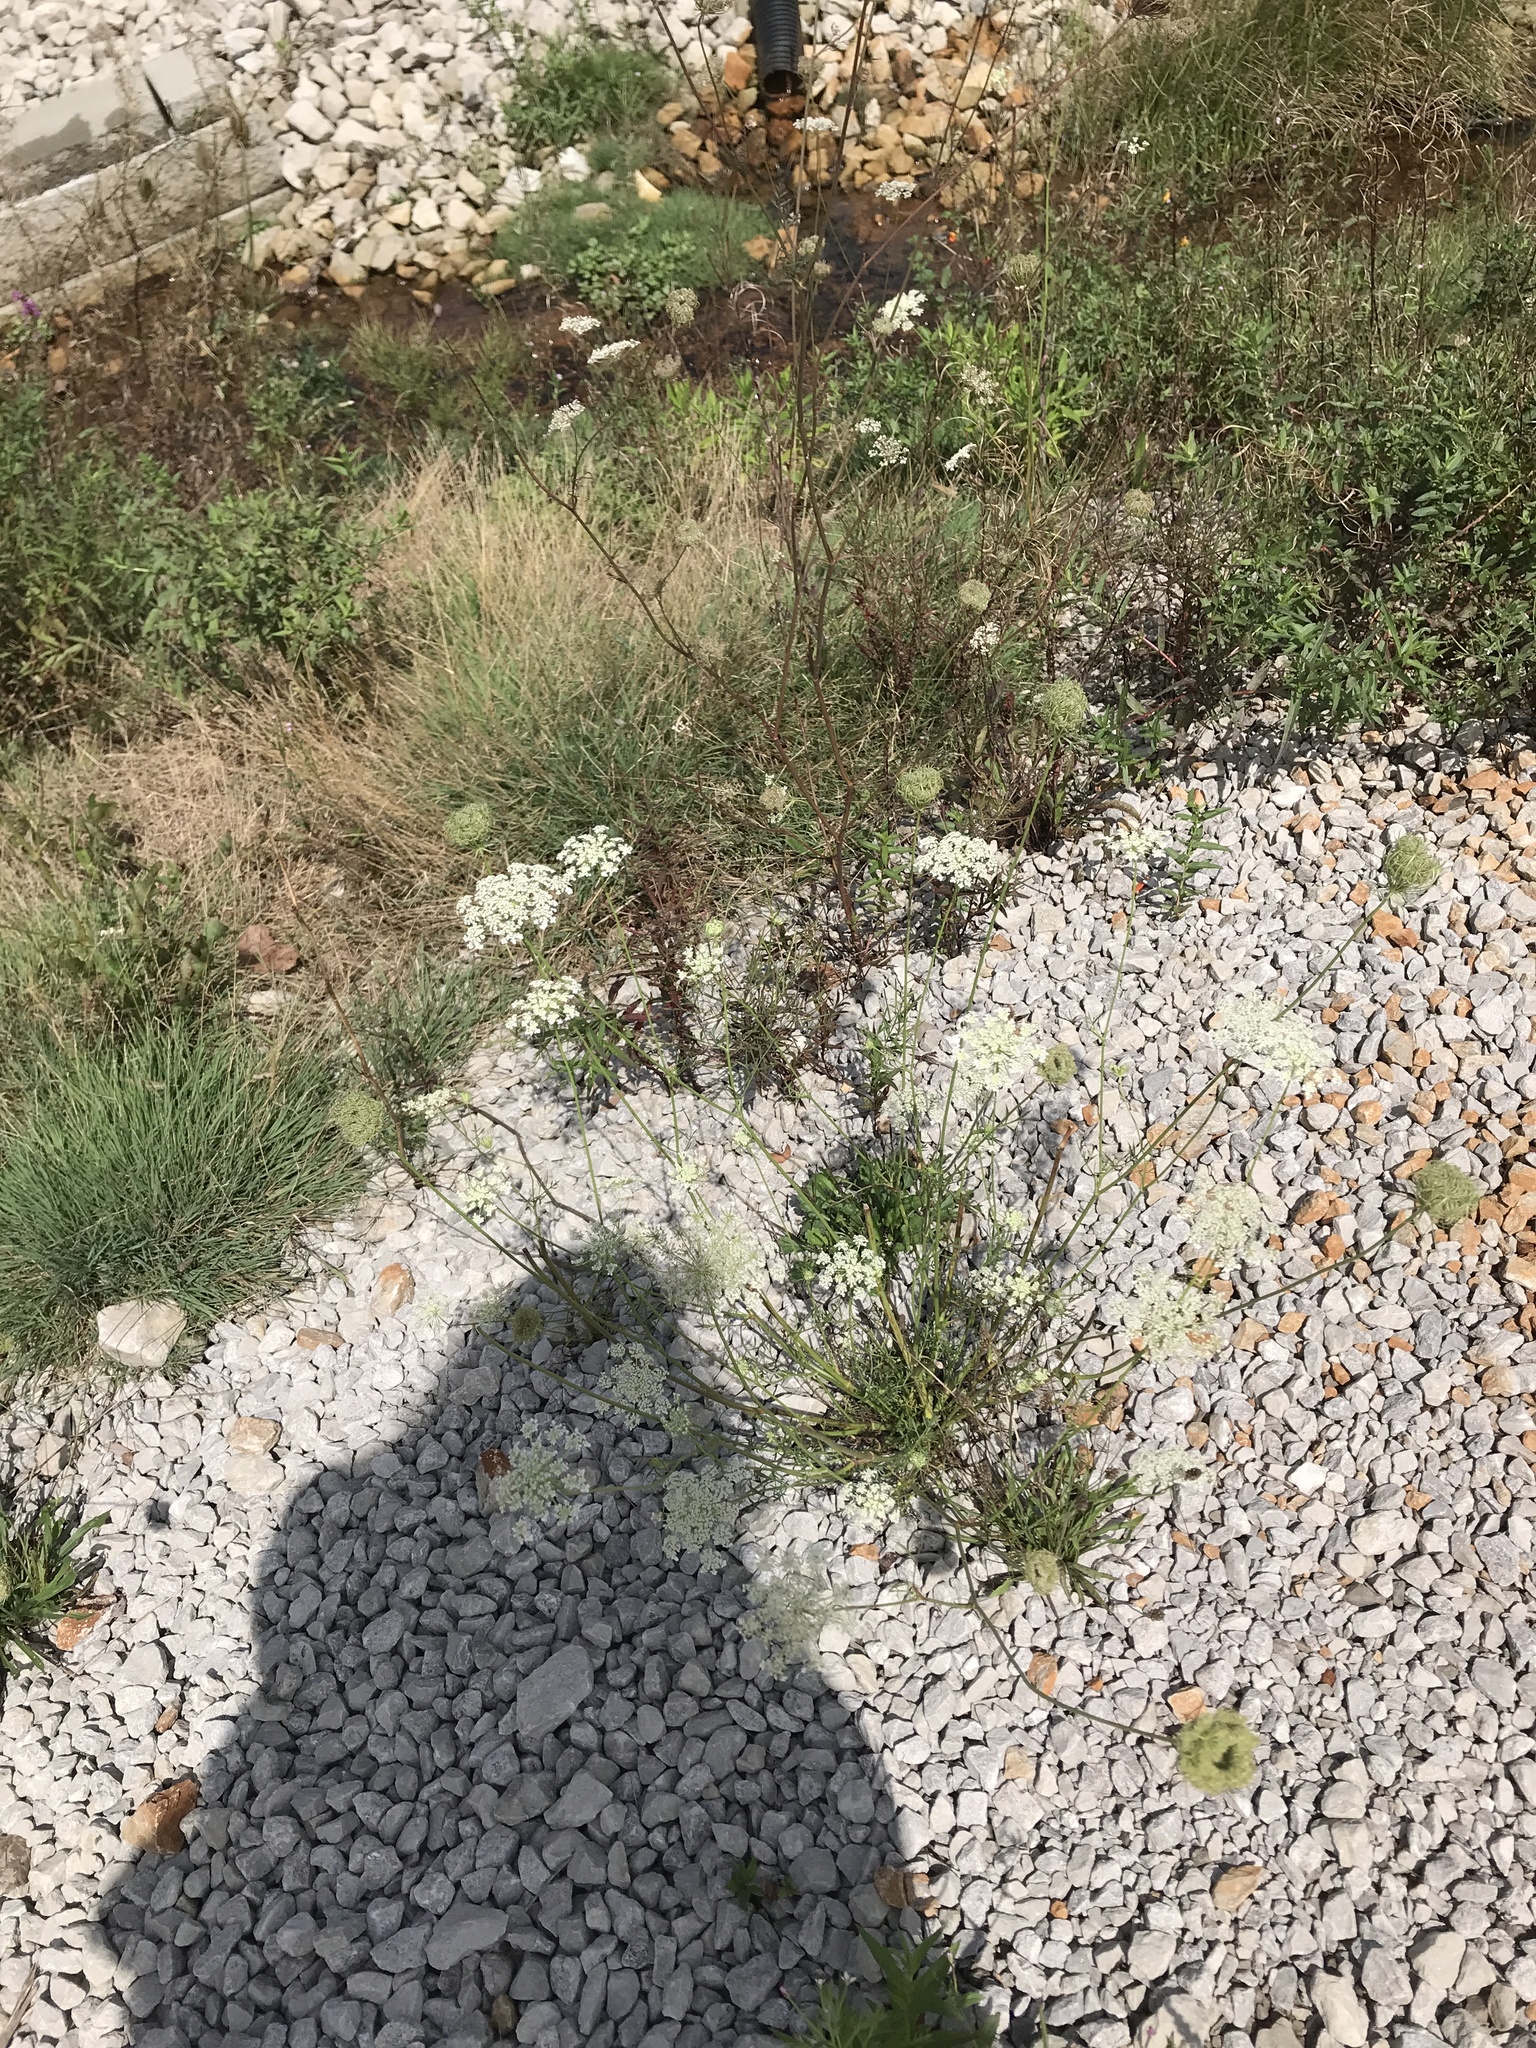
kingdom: Plantae
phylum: Tracheophyta
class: Magnoliopsida
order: Apiales
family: Apiaceae
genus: Daucus
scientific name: Daucus carota
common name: Wild carrot
